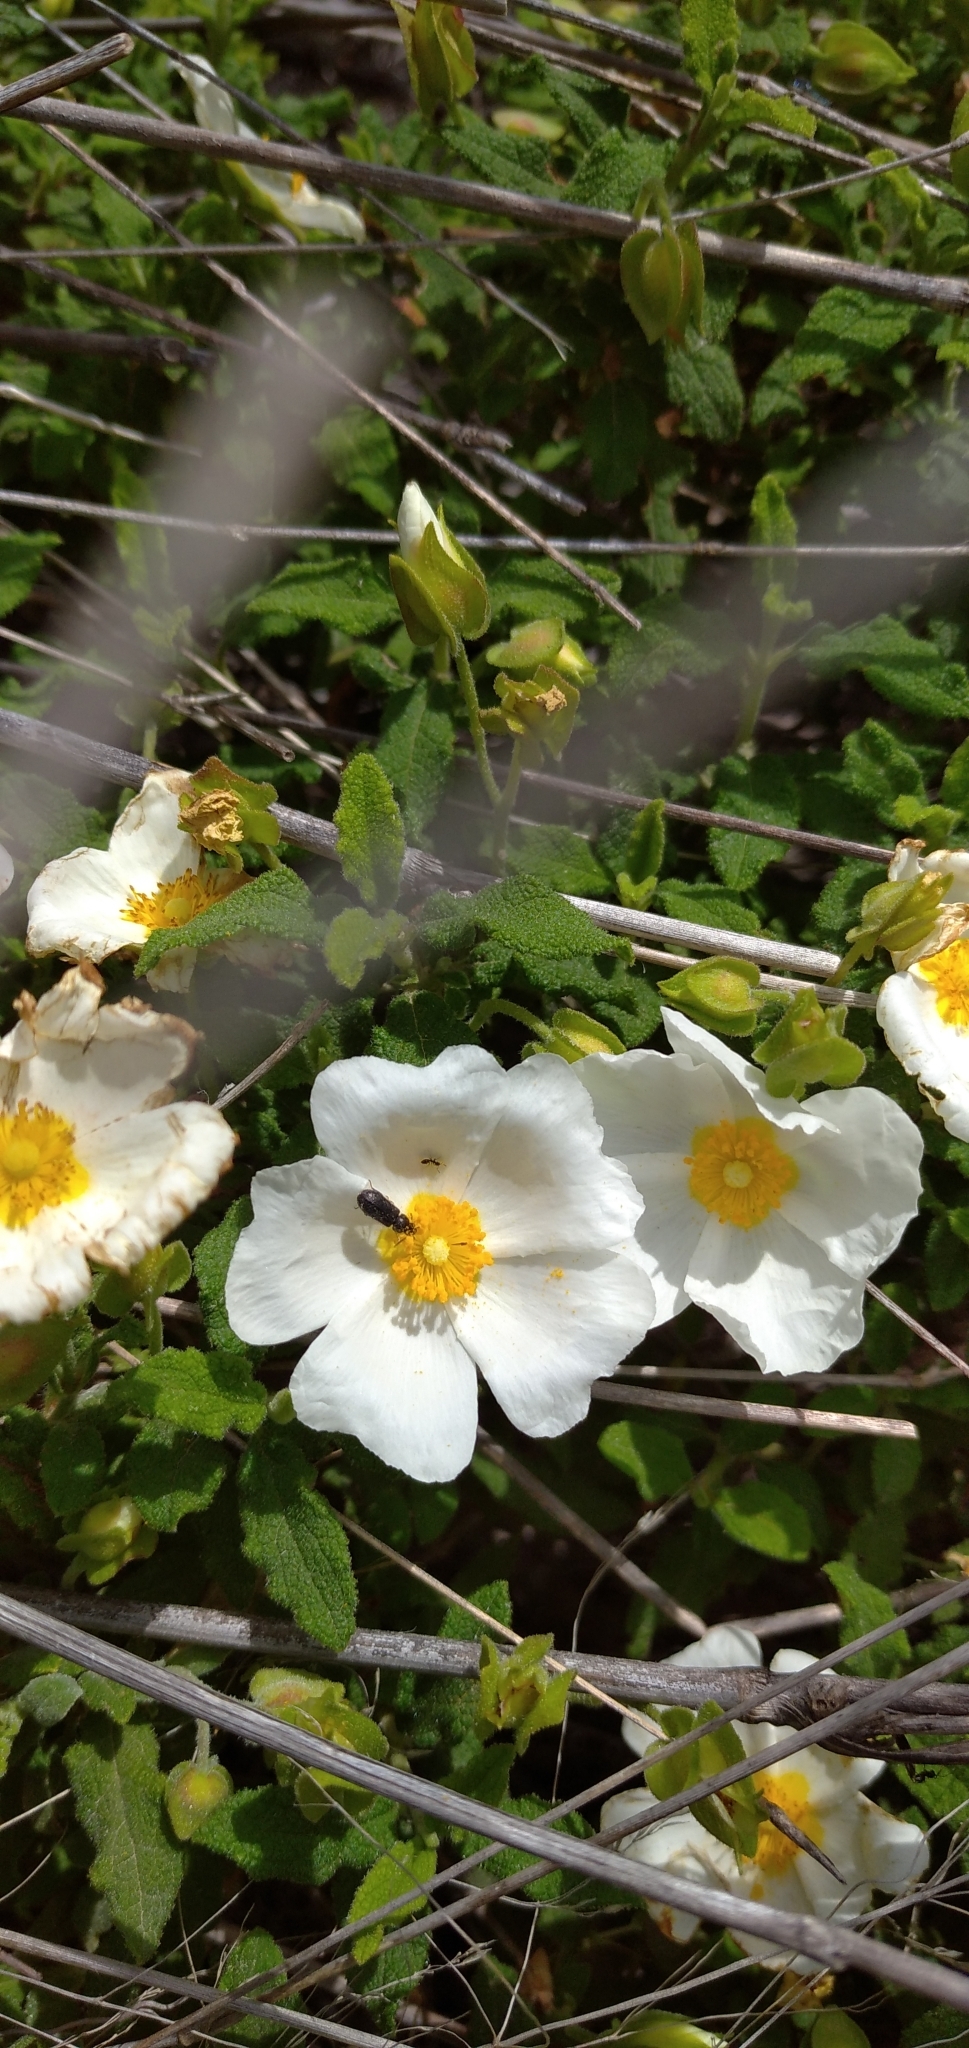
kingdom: Plantae
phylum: Tracheophyta
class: Magnoliopsida
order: Malvales
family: Cistaceae
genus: Cistus
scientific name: Cistus salviifolius
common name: Salvia cistus
